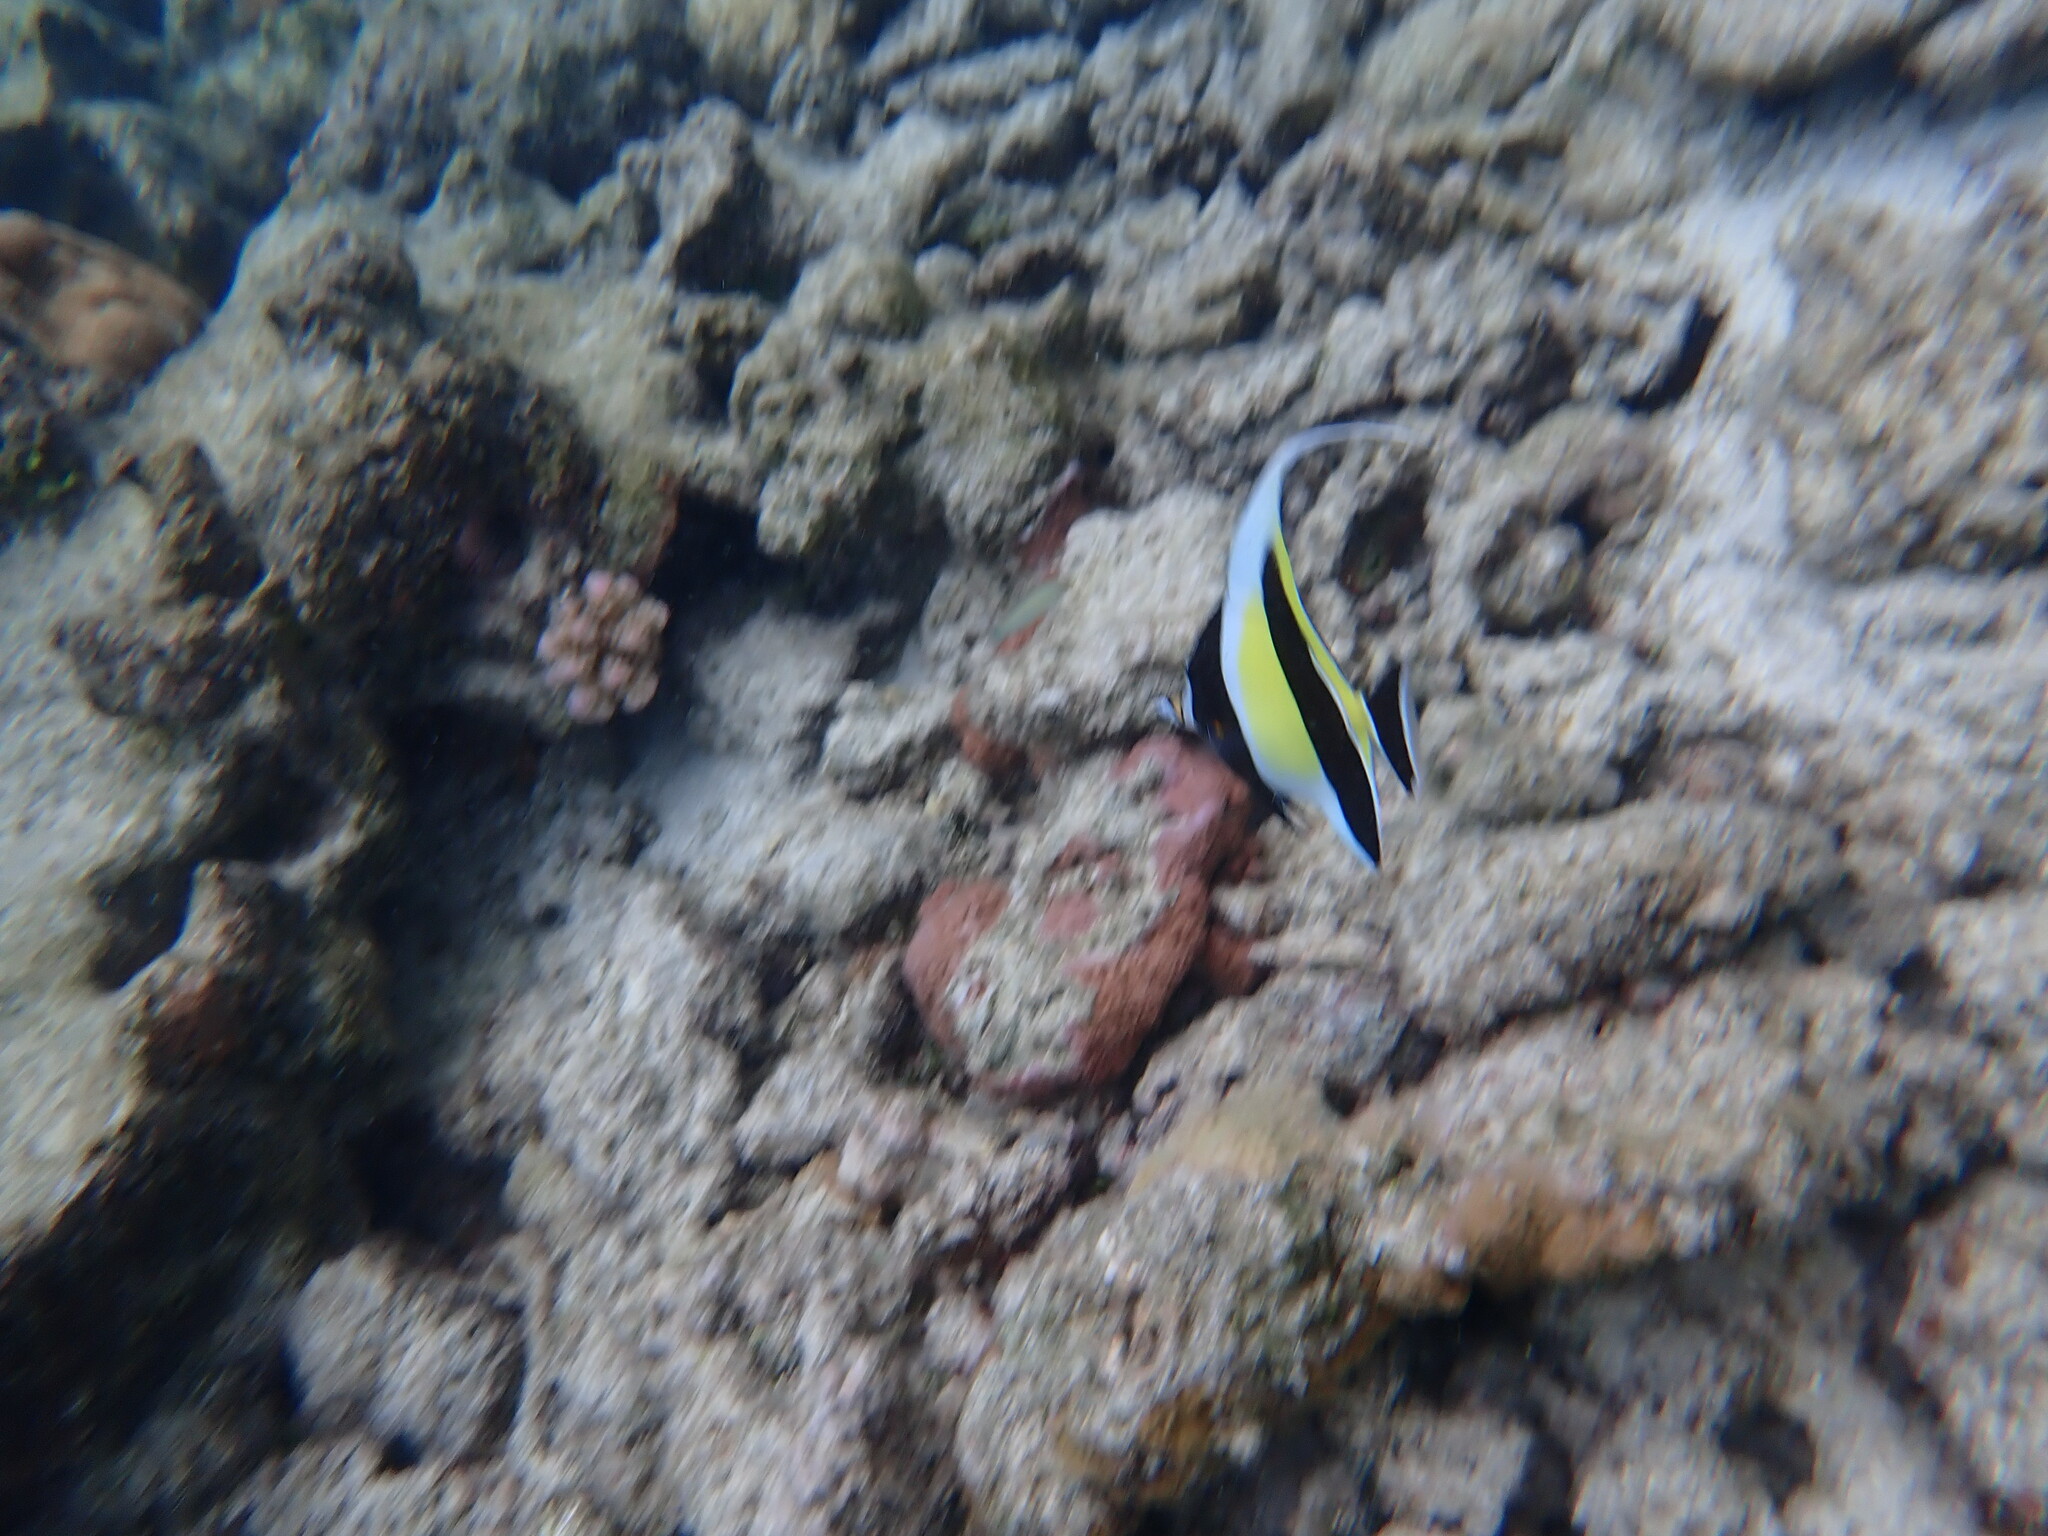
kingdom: Animalia
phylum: Chordata
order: Perciformes
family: Zanclidae
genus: Zanclus
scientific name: Zanclus cornutus
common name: Moorish idol
